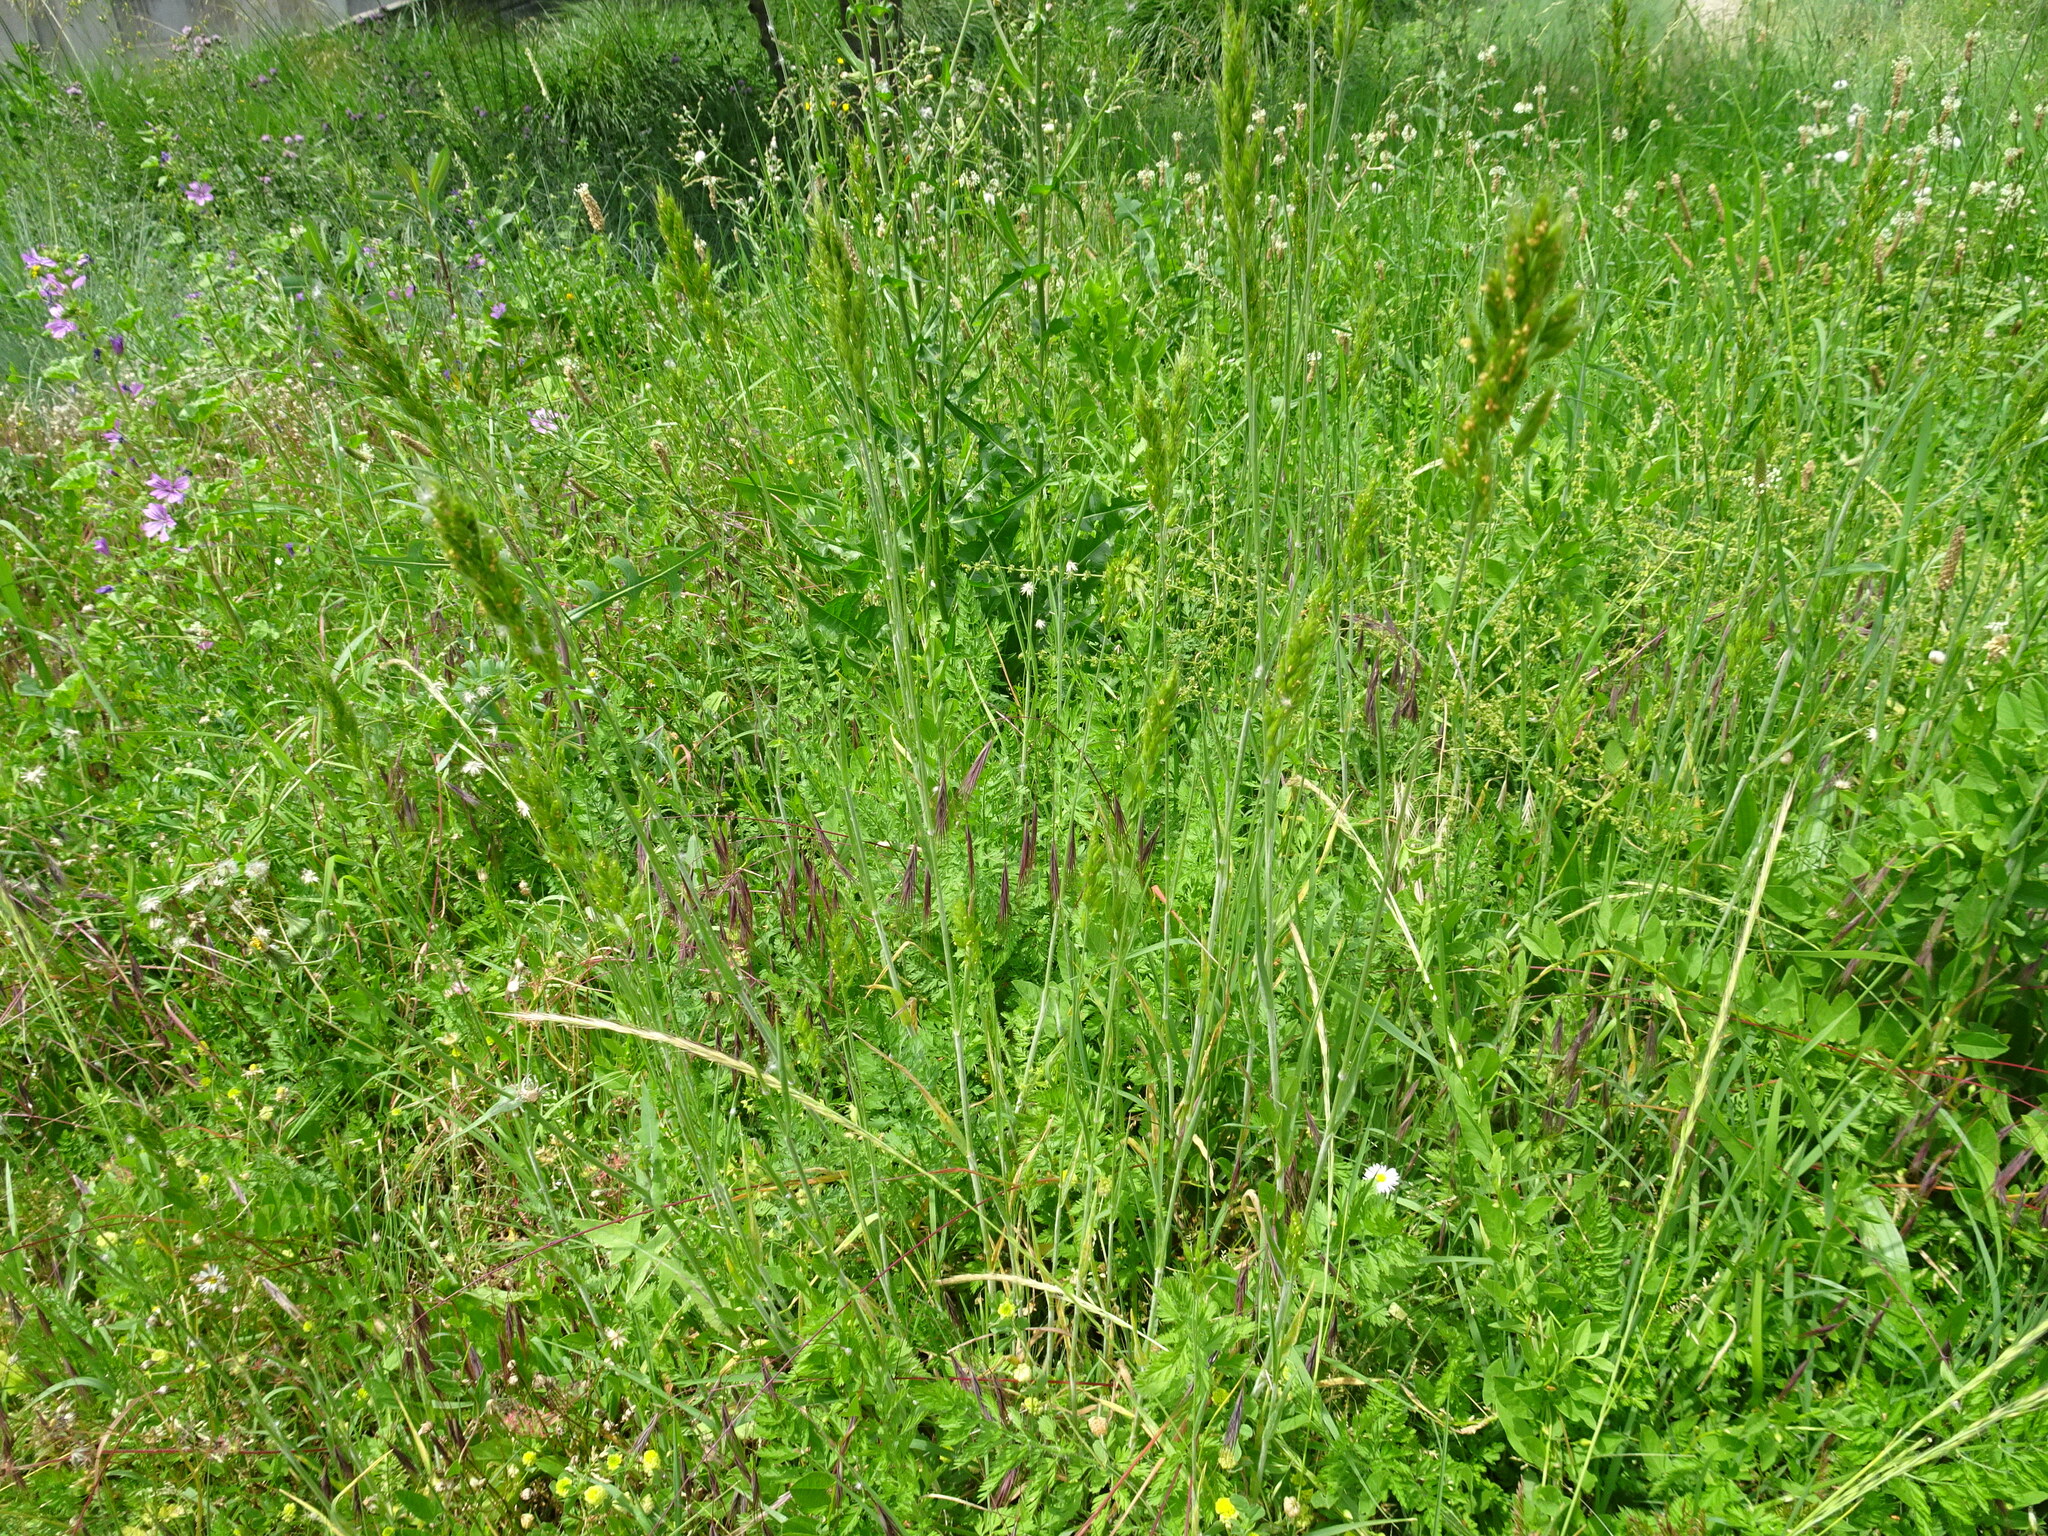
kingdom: Plantae
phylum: Tracheophyta
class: Liliopsida
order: Poales
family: Poaceae
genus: Bromus
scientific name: Bromus hordeaceus
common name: Soft brome
